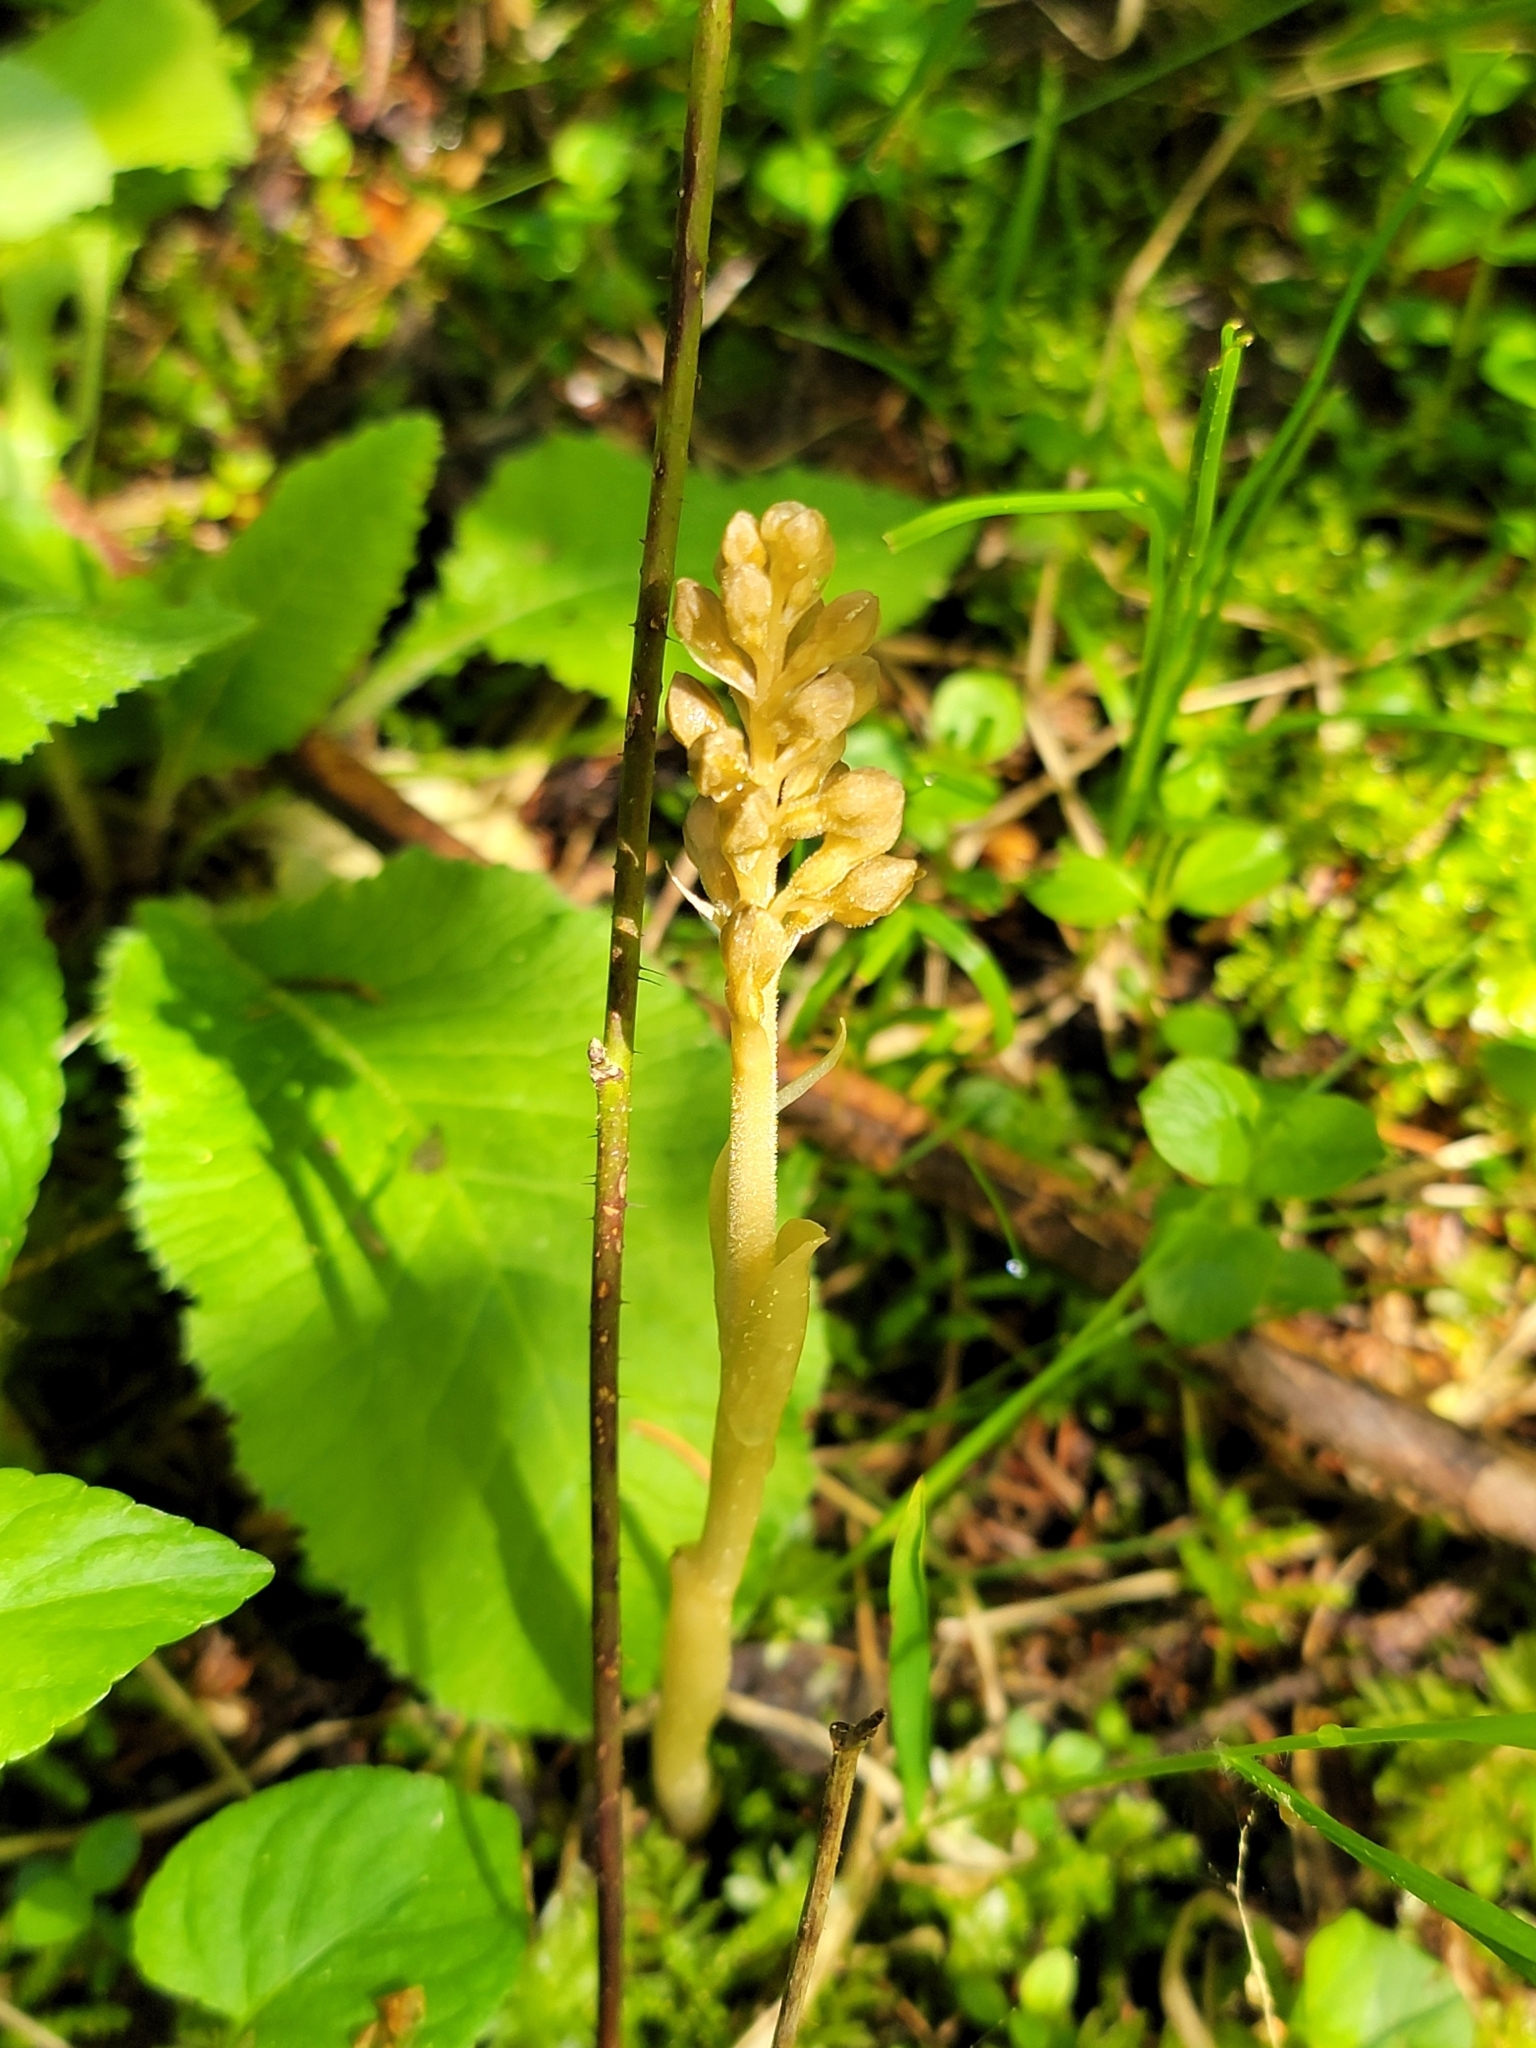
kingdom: Plantae
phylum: Tracheophyta
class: Liliopsida
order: Asparagales
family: Orchidaceae
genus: Neottia
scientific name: Neottia nidus-avis
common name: Bird's-nest orchid
